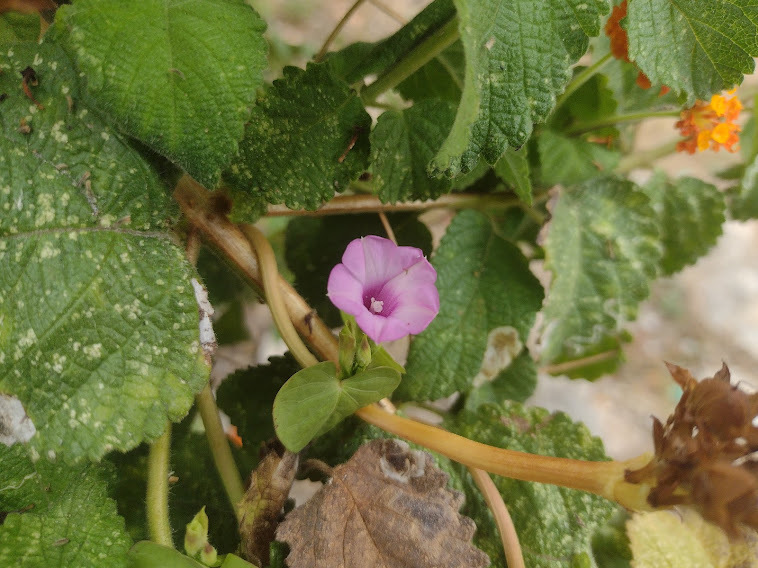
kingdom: Plantae
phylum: Tracheophyta
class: Magnoliopsida
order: Solanales
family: Convolvulaceae
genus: Ipomoea
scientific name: Ipomoea triloba
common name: Little-bell
